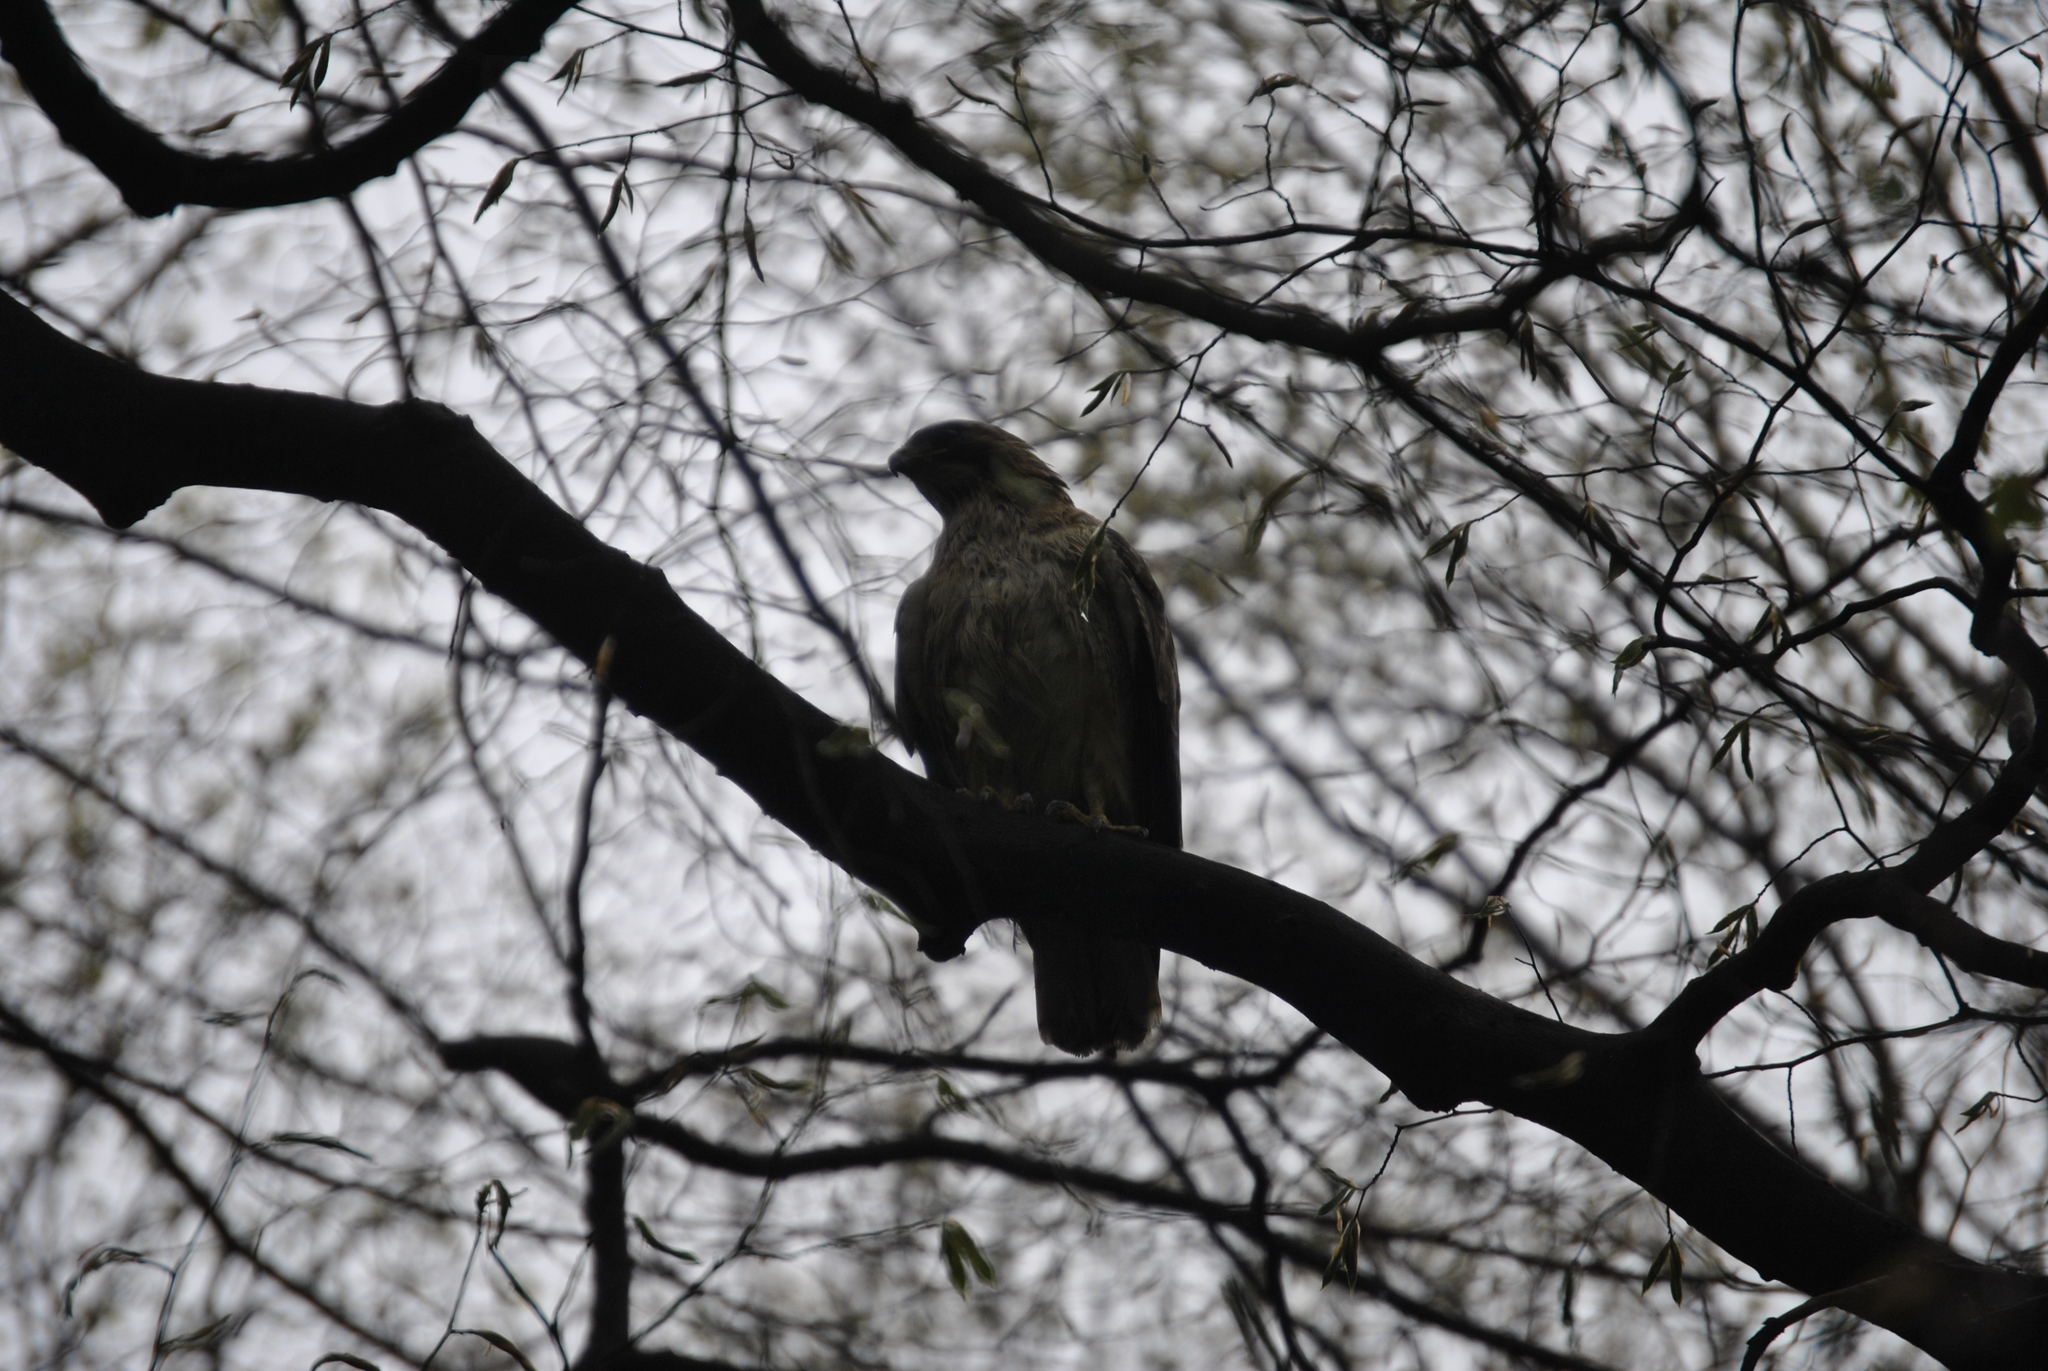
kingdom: Animalia
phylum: Chordata
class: Aves
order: Accipitriformes
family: Accipitridae
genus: Buteo
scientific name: Buteo jamaicensis
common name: Red-tailed hawk
